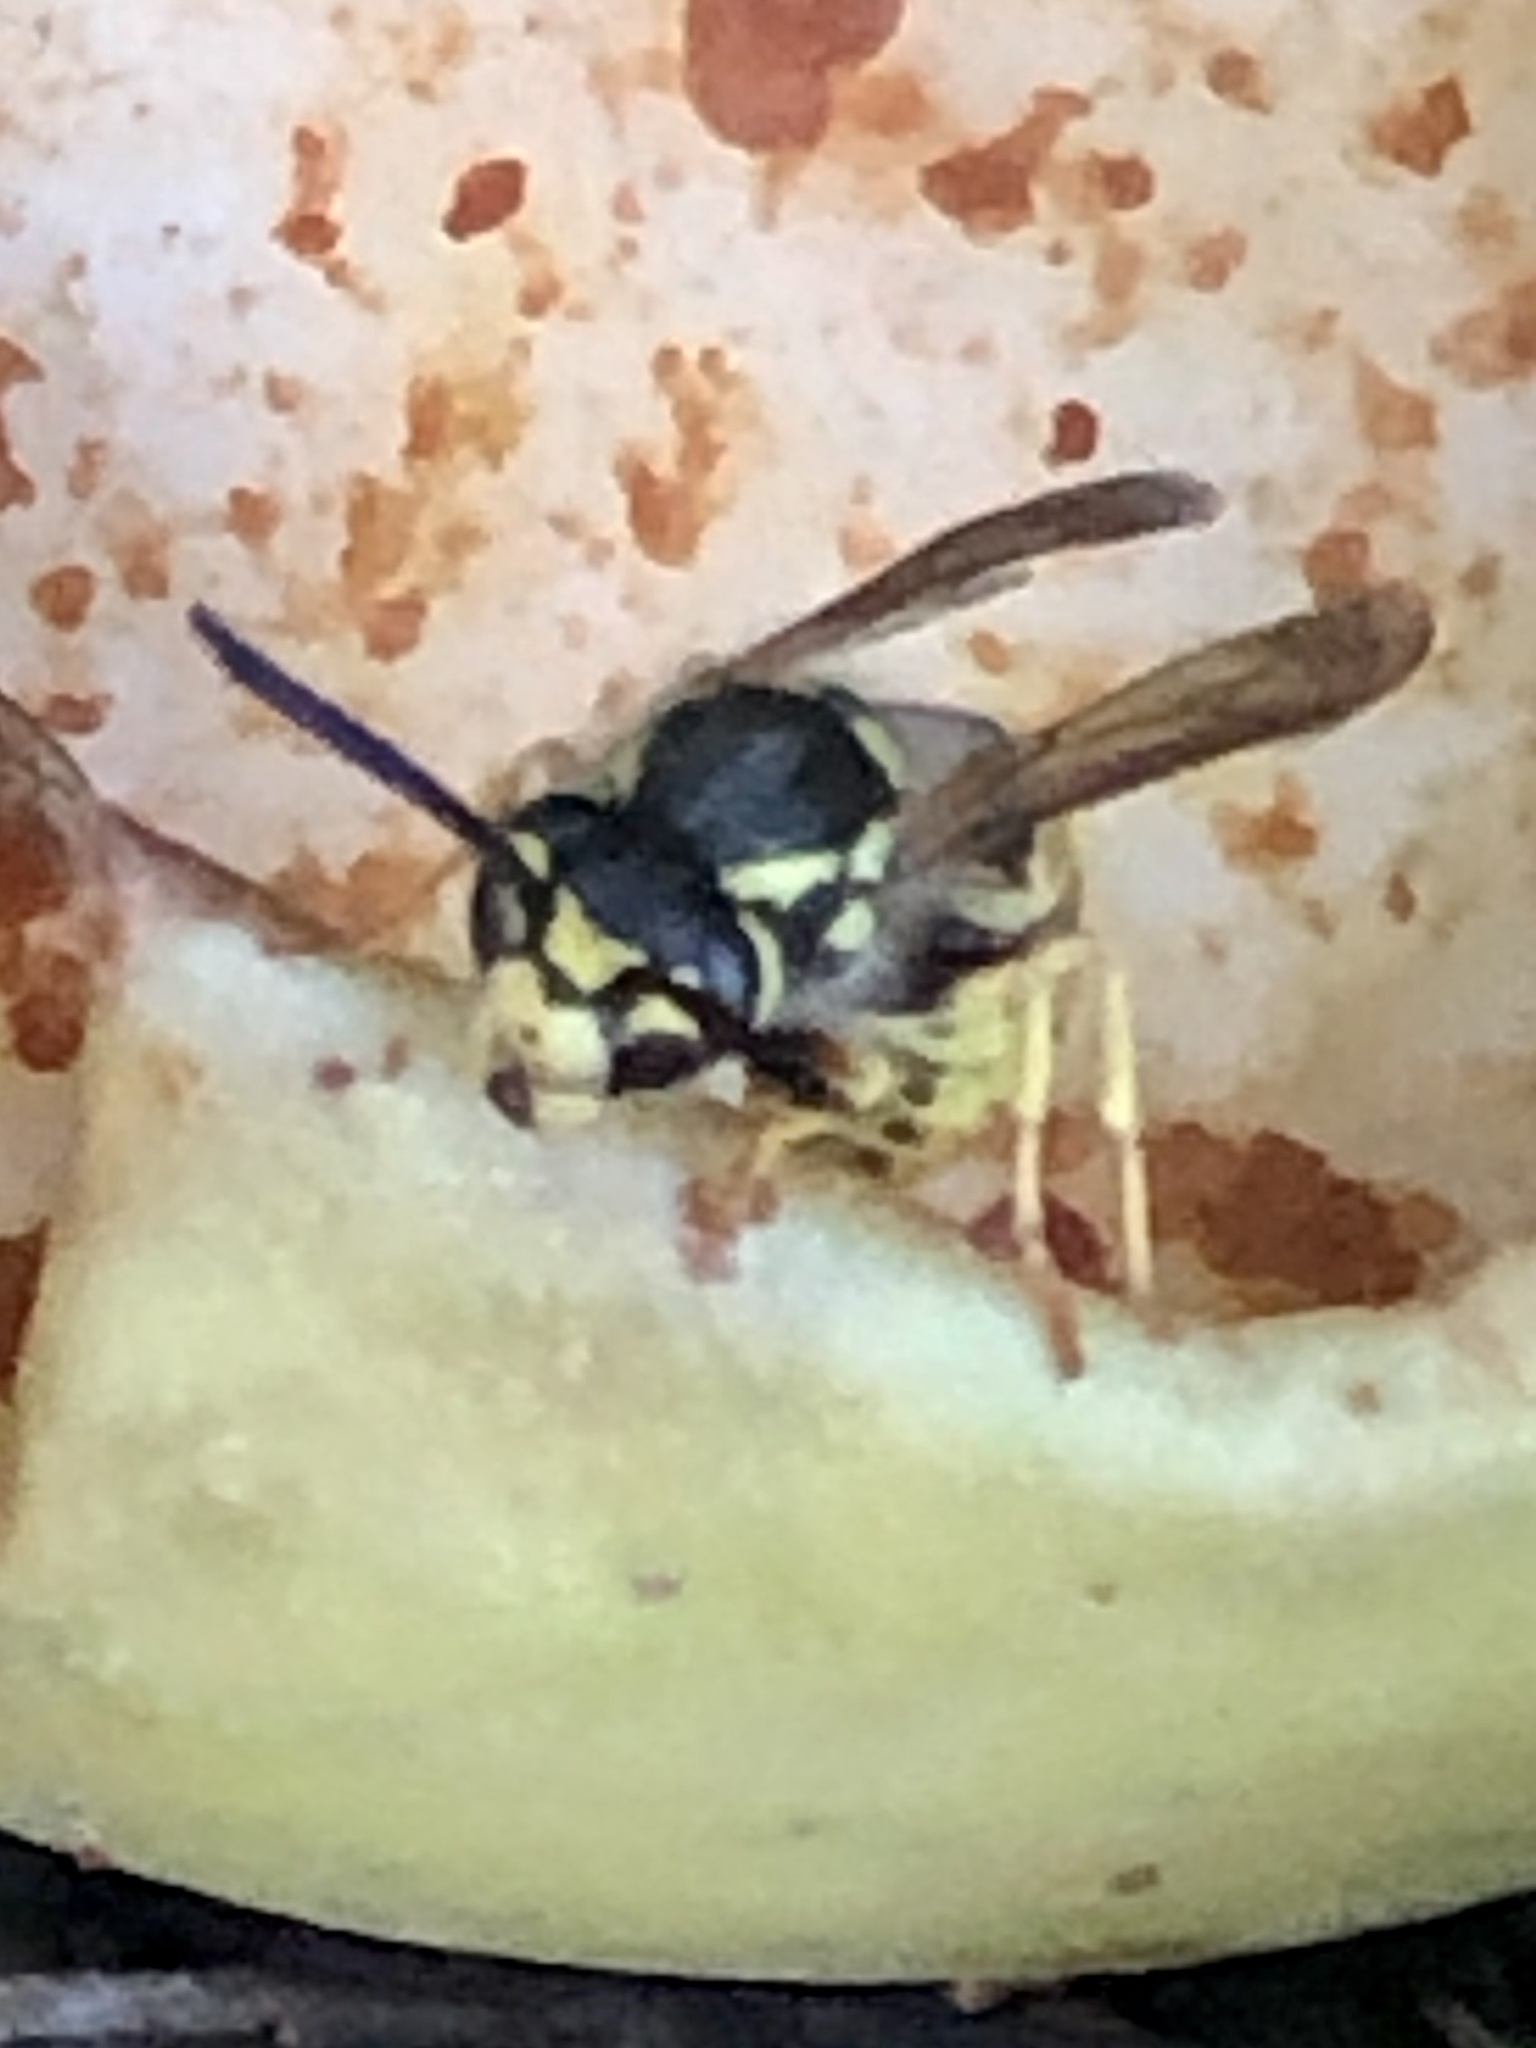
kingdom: Animalia
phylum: Arthropoda
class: Insecta
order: Hymenoptera
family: Vespidae
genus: Vespula
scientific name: Vespula germanica
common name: German wasp
